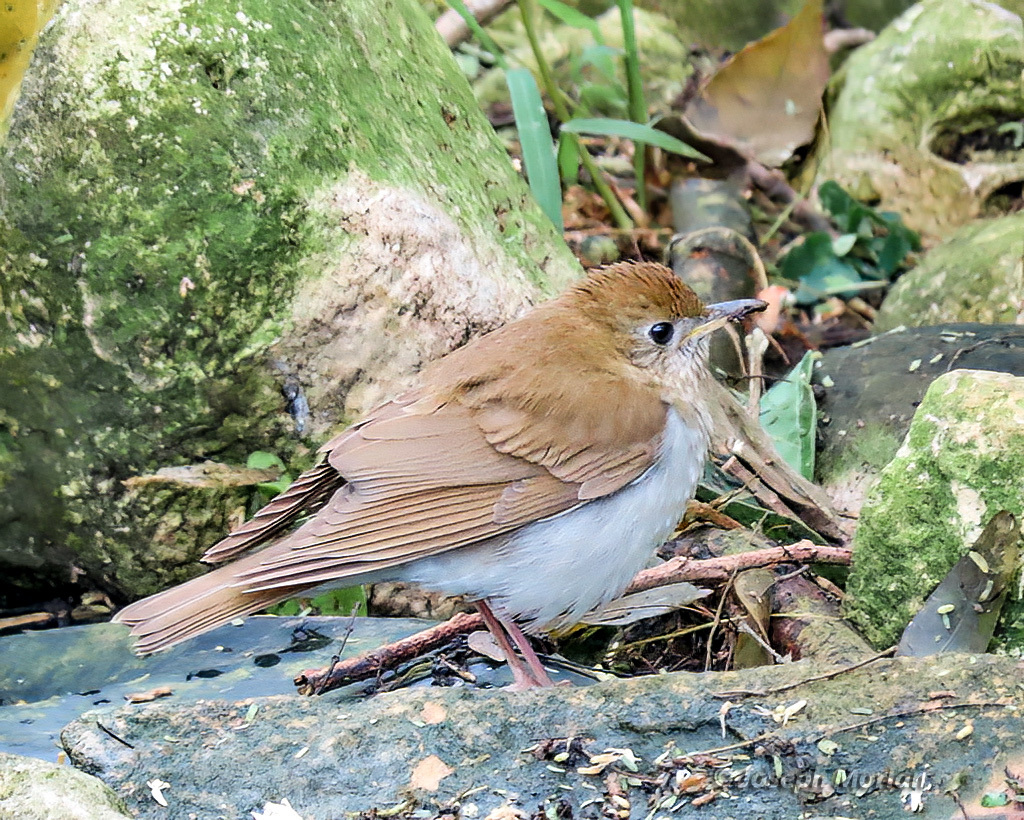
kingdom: Animalia
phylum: Chordata
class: Aves
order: Passeriformes
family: Turdidae
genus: Catharus
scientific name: Catharus fuscescens
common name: Veery
